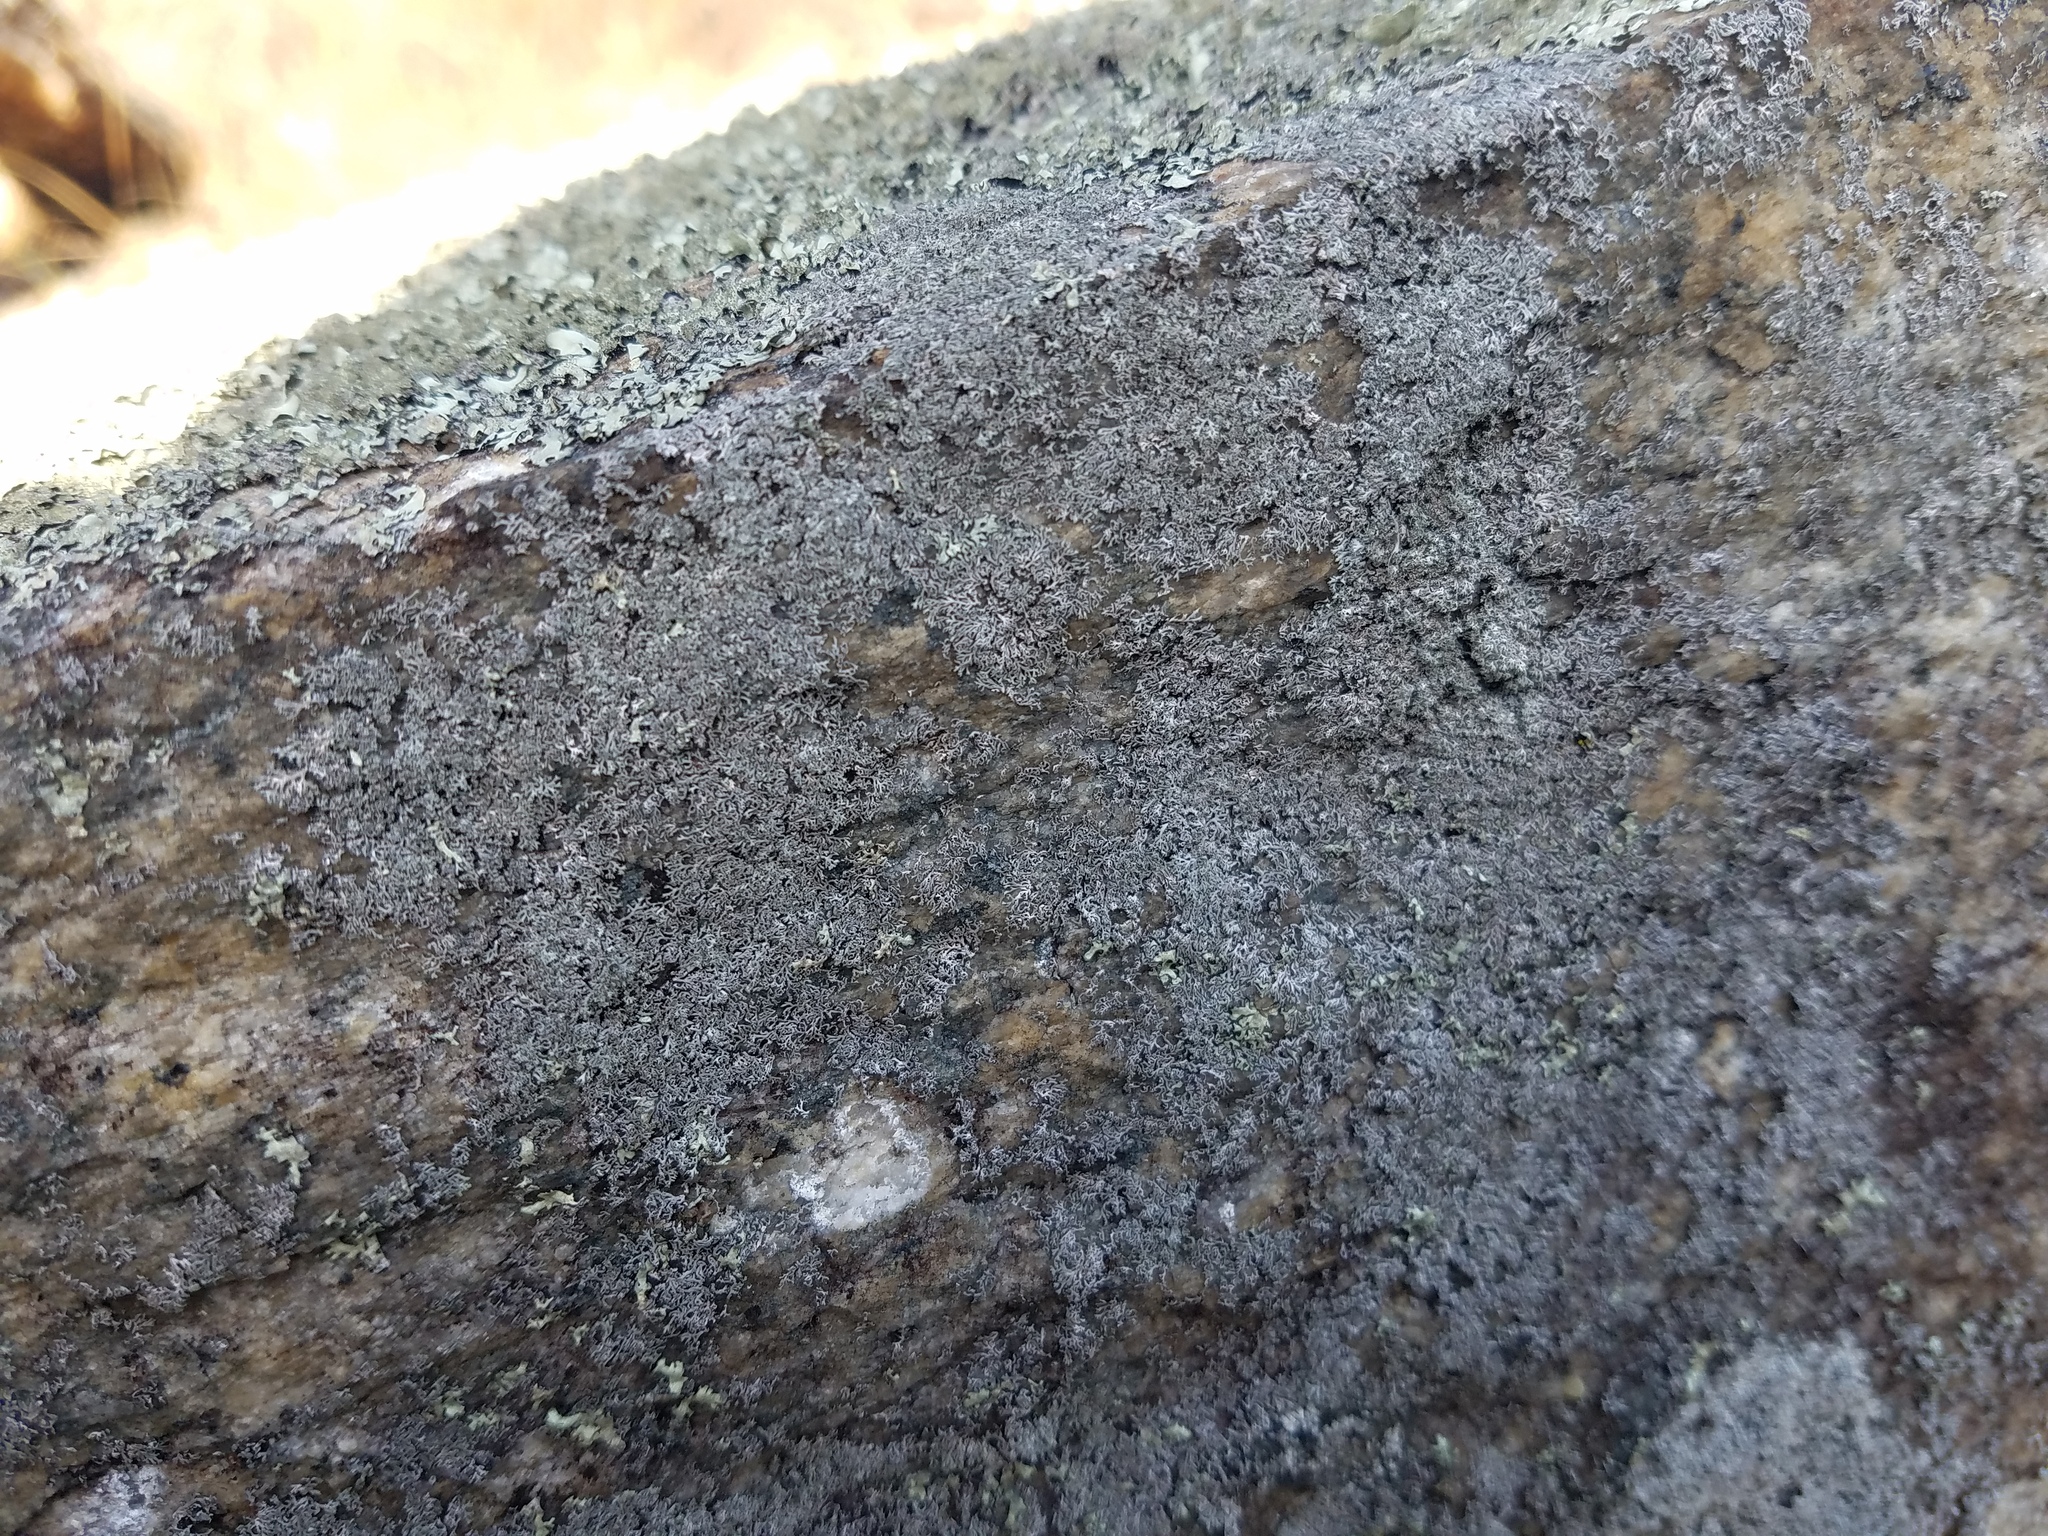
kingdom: Fungi
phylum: Ascomycota
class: Lecanoromycetes
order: Caliciales
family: Physciaceae
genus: Physcia
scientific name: Physcia subtilis
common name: Slender rosette lichen
